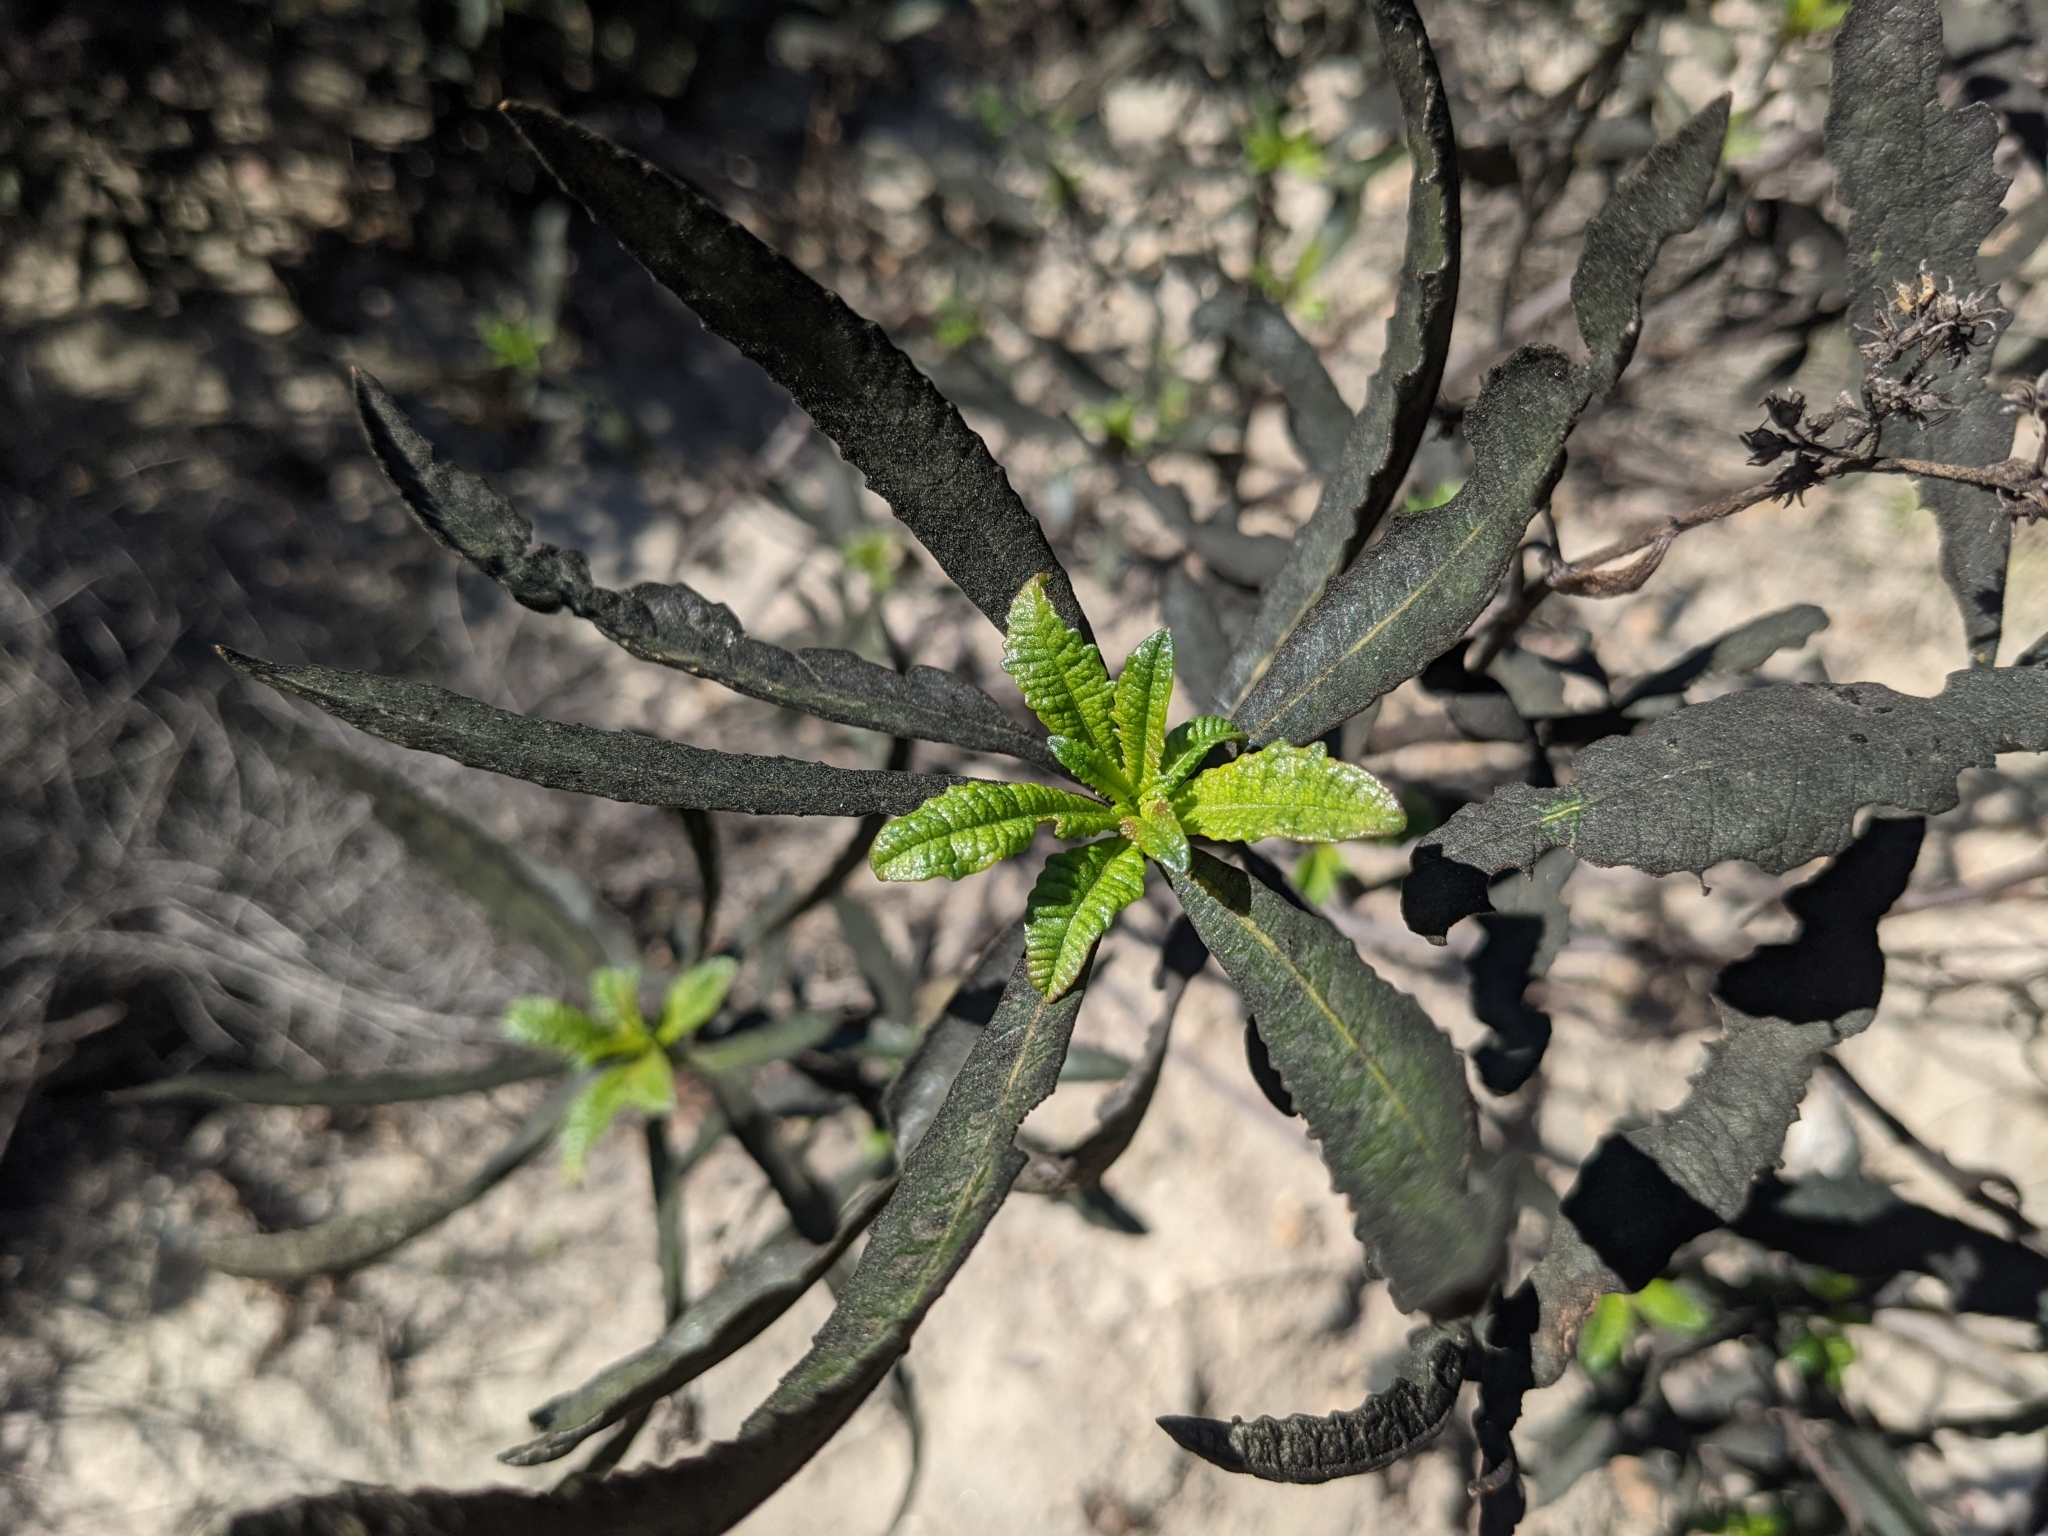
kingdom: Plantae
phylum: Tracheophyta
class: Magnoliopsida
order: Boraginales
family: Namaceae
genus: Eriodictyon
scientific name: Eriodictyon californicum
